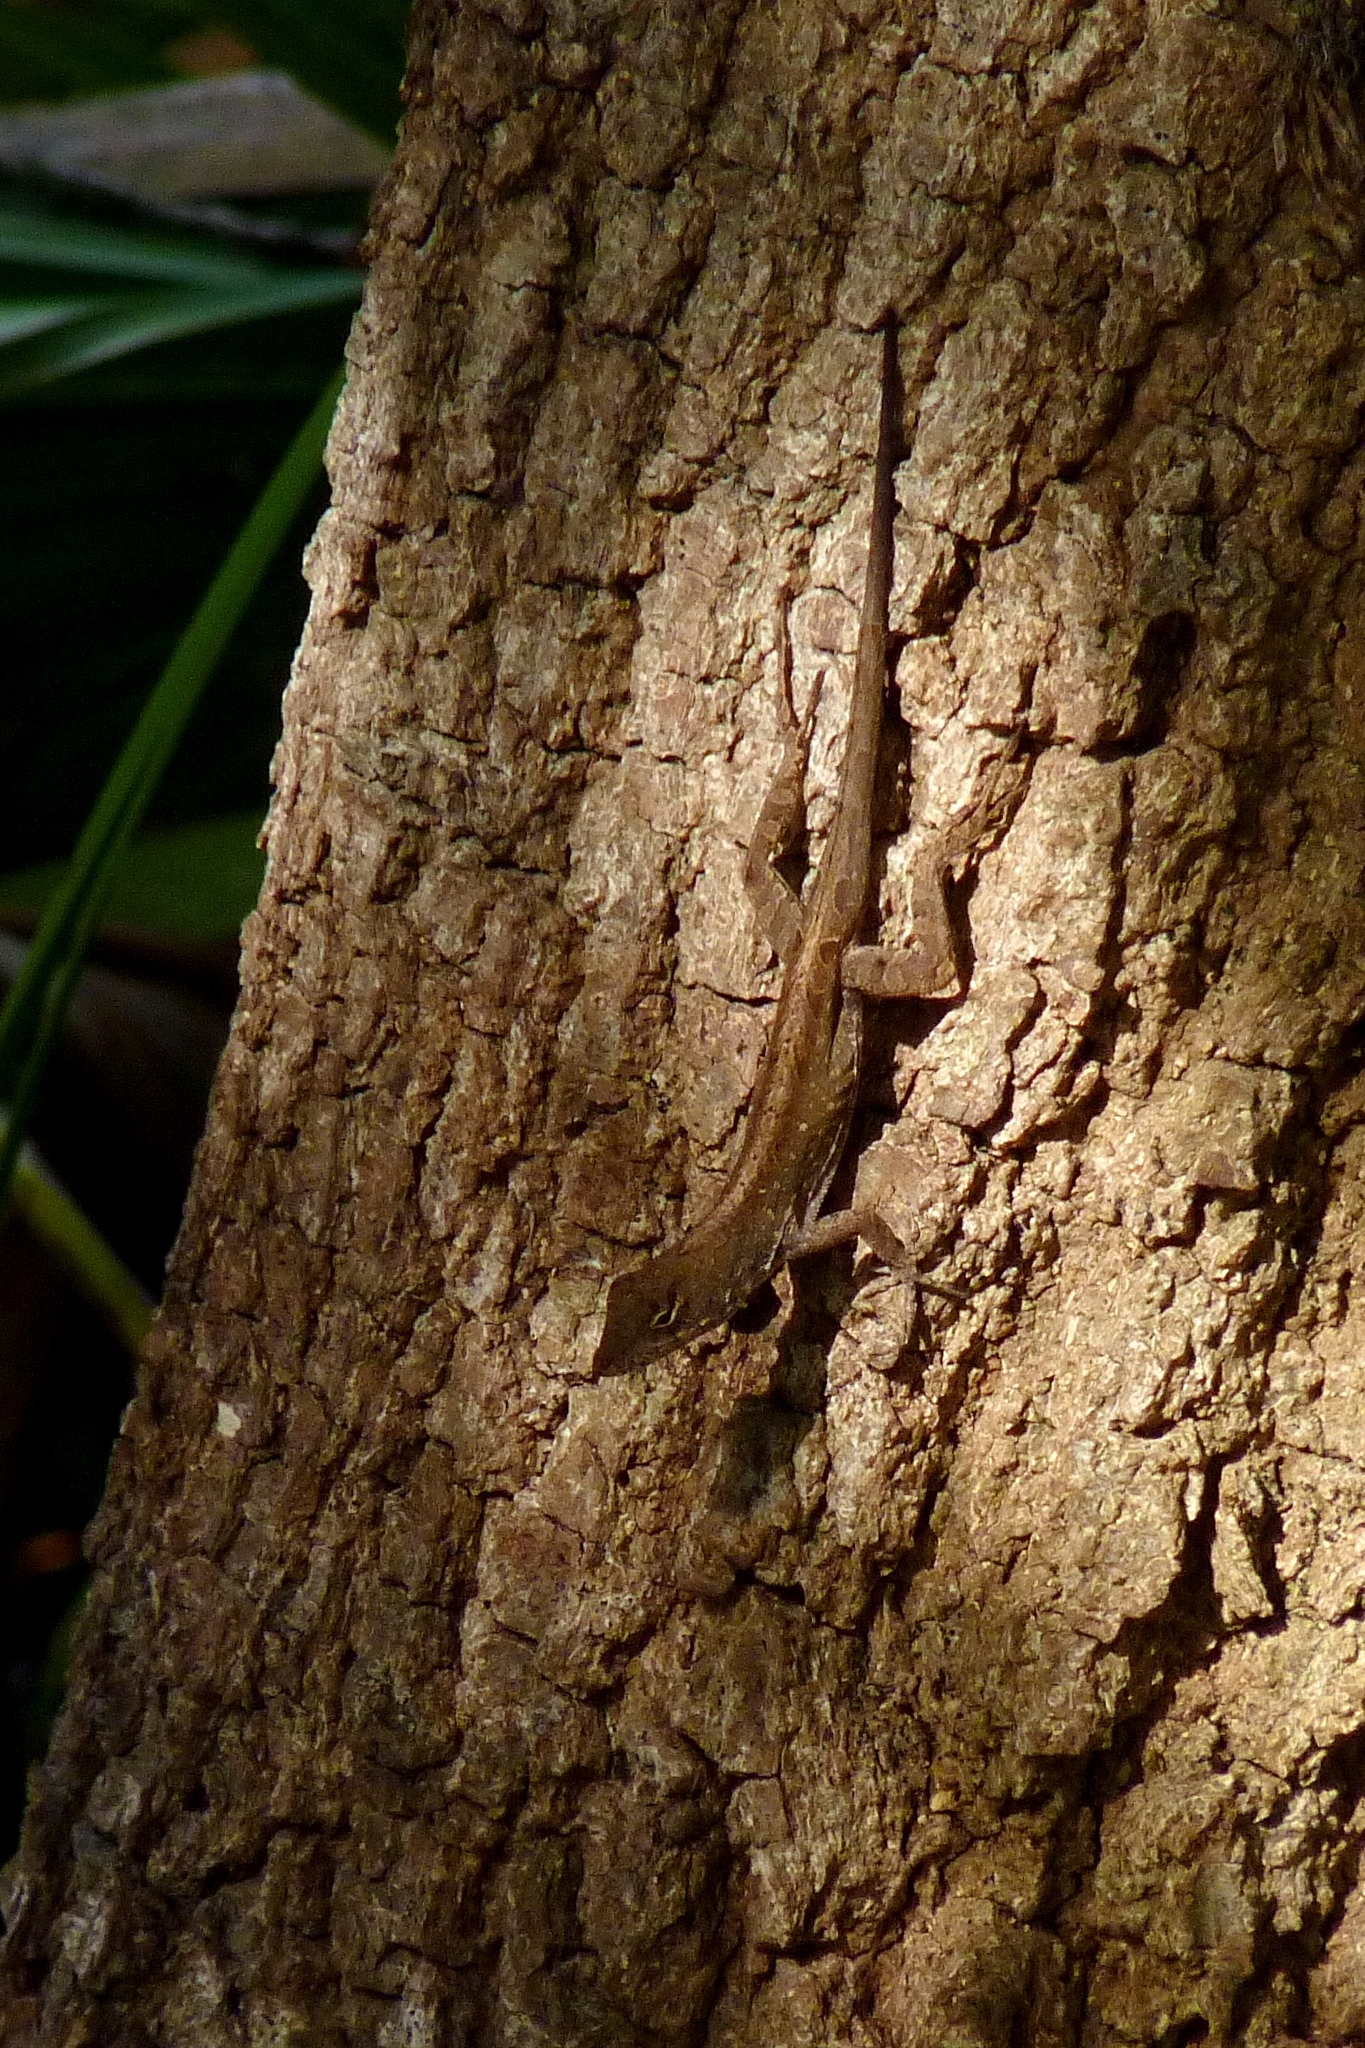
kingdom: Animalia
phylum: Chordata
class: Squamata
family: Dactyloidae
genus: Anolis
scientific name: Anolis sagrei
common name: Brown anole
